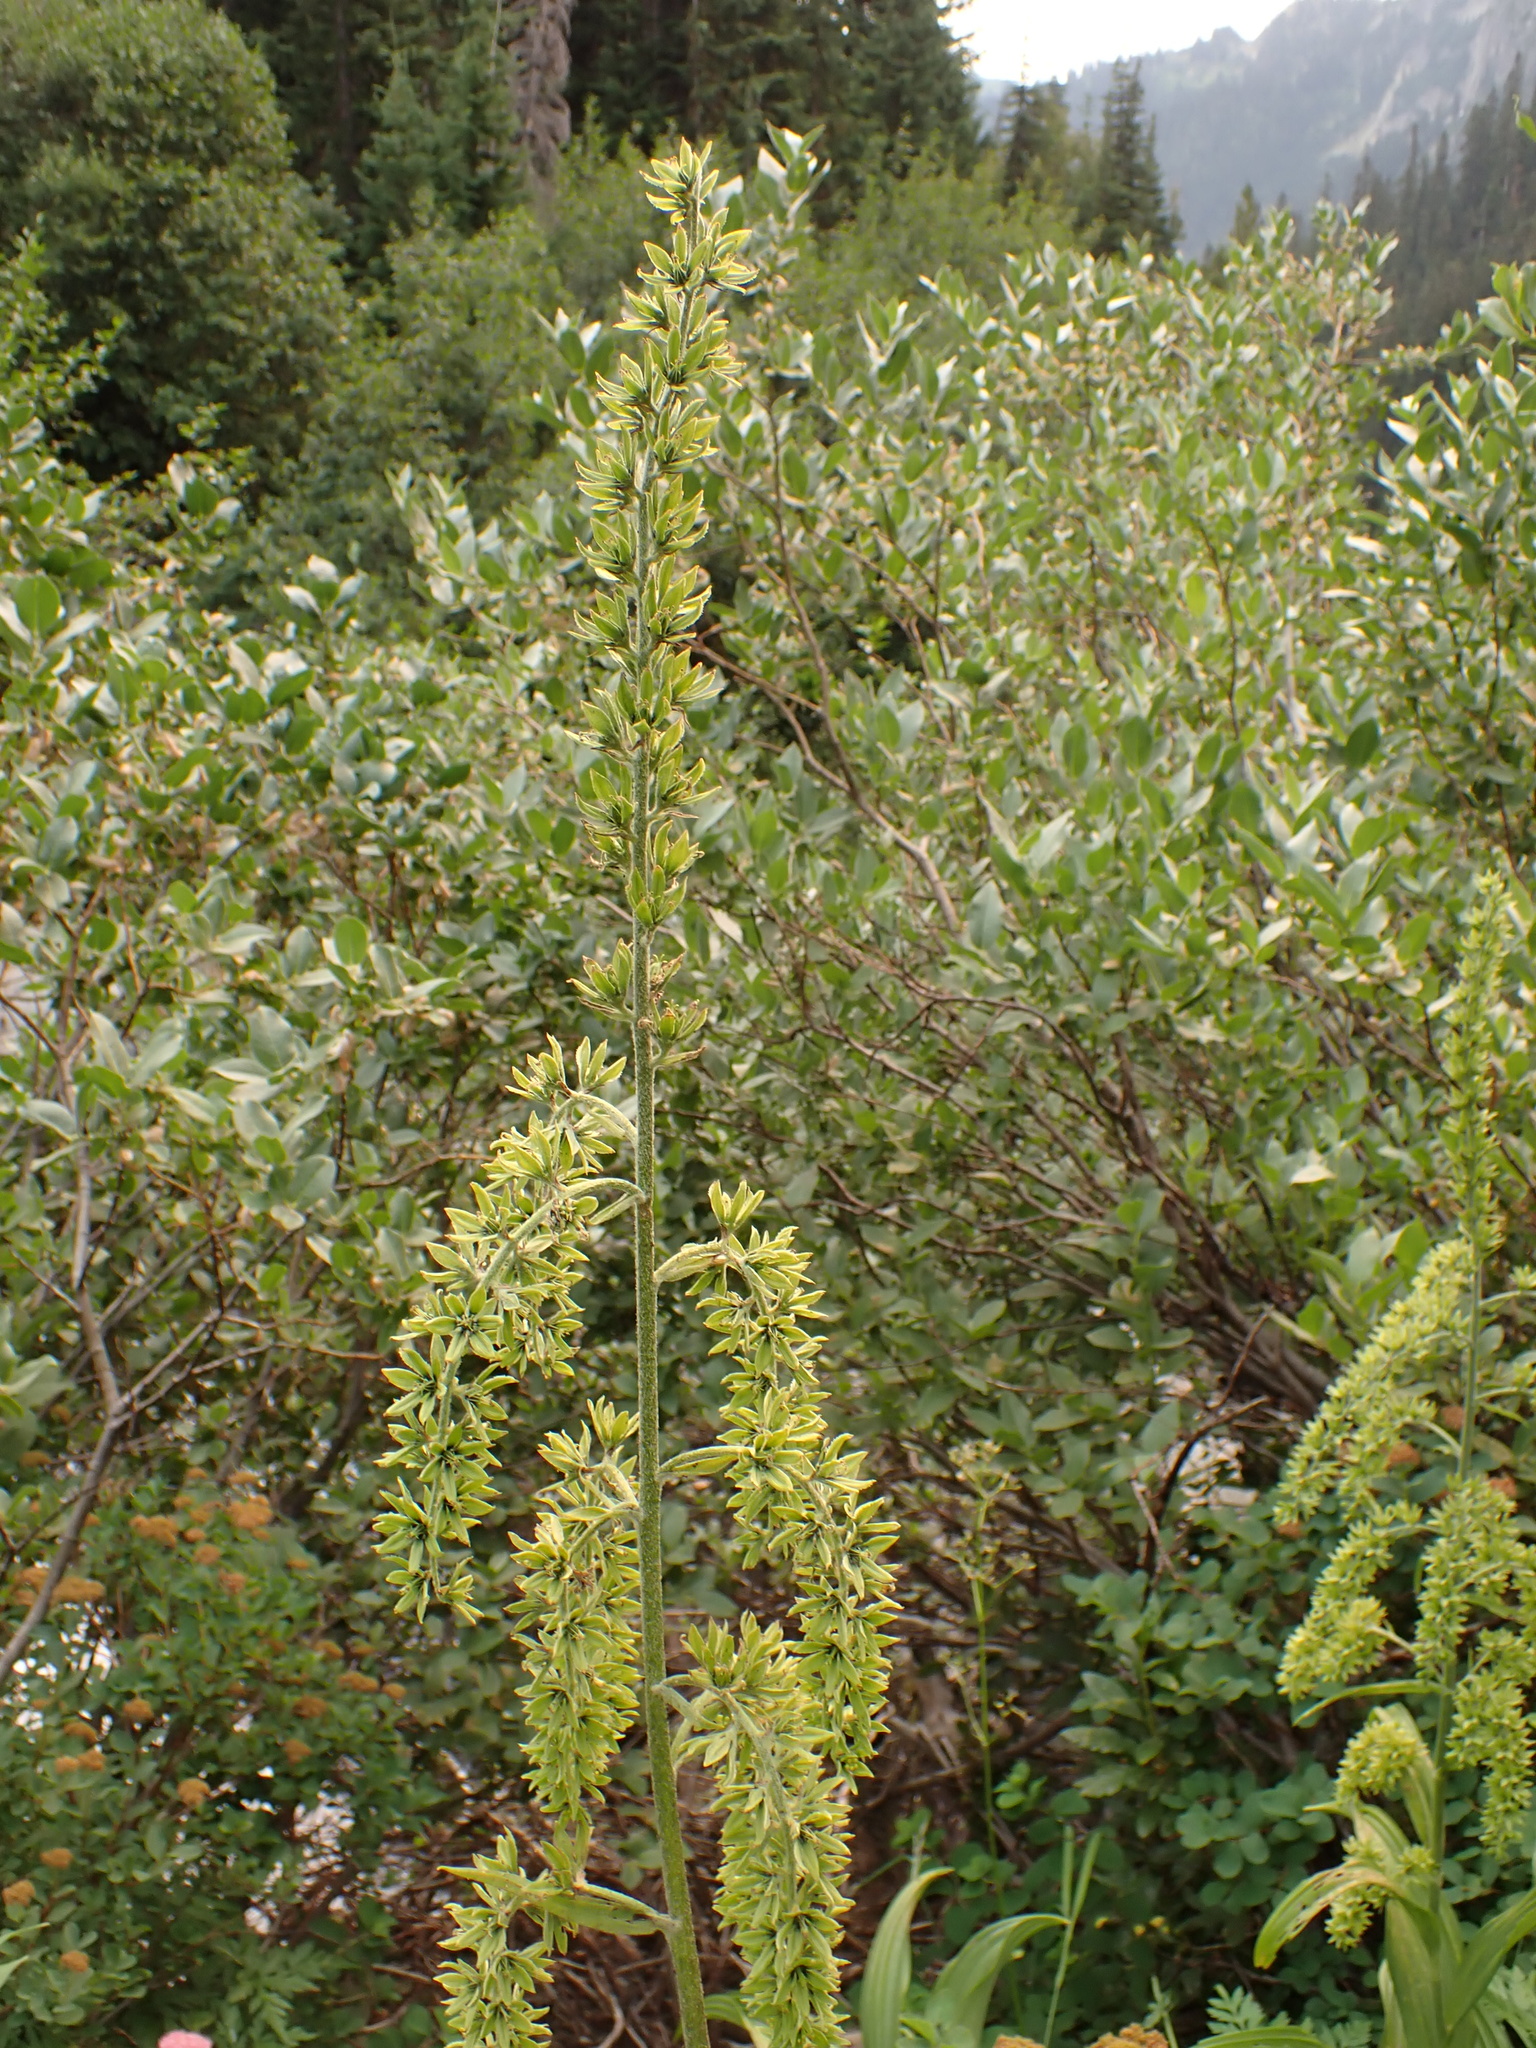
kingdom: Plantae
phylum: Tracheophyta
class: Liliopsida
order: Liliales
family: Melanthiaceae
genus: Veratrum
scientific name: Veratrum viride
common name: American false hellebore
